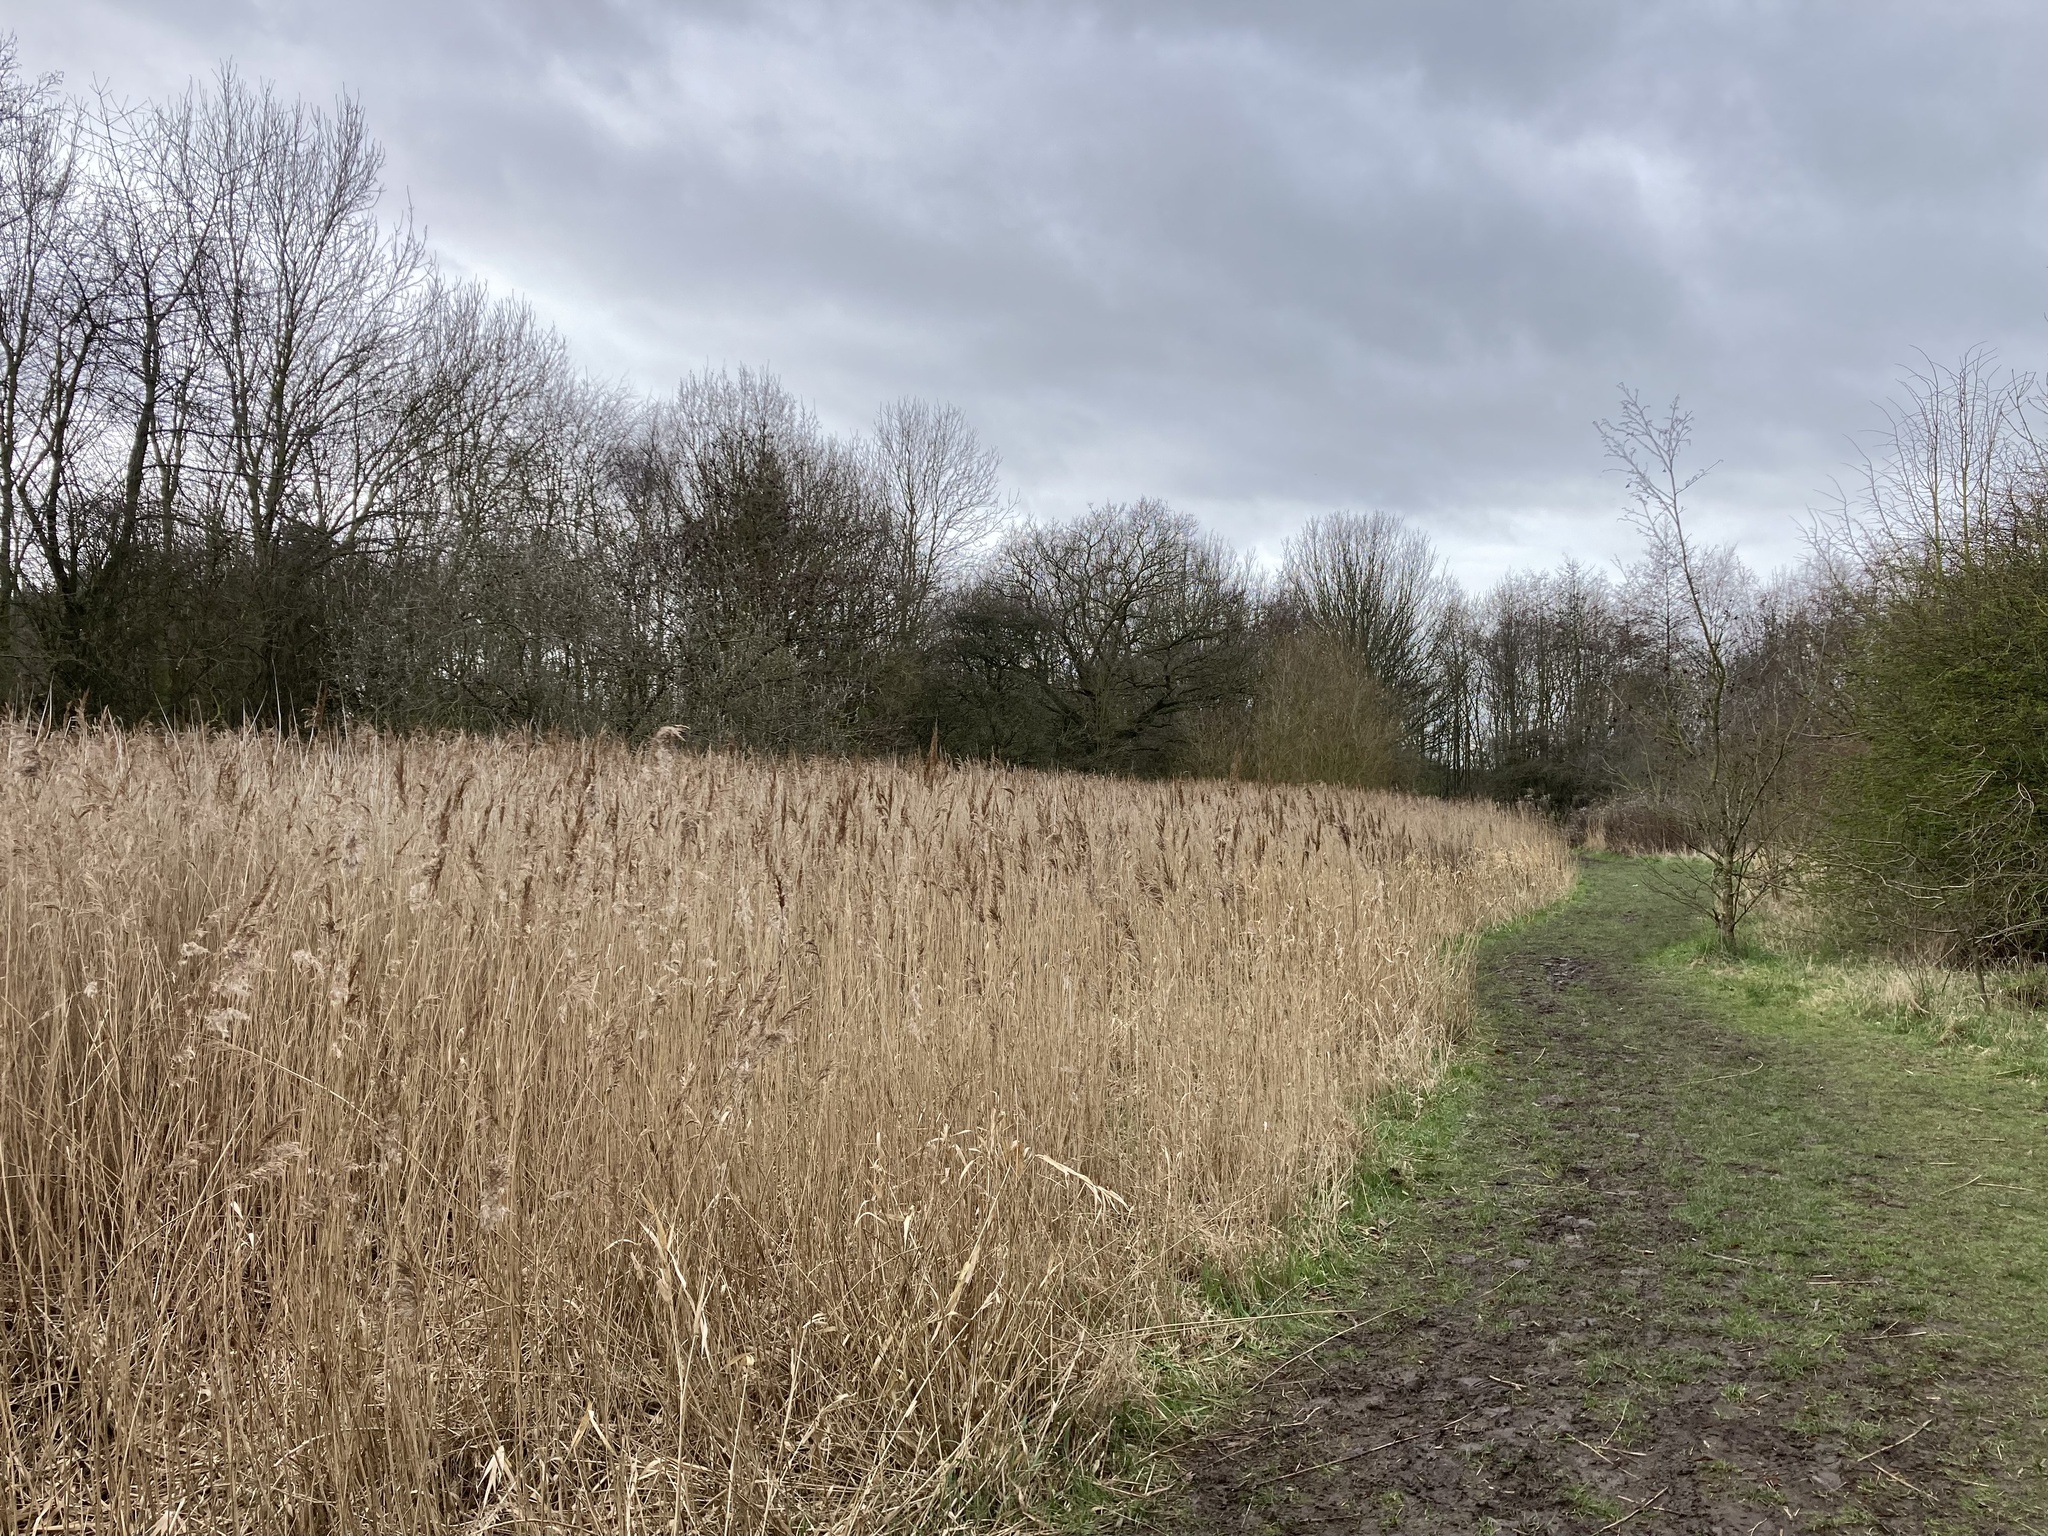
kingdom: Plantae
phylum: Tracheophyta
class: Liliopsida
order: Poales
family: Poaceae
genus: Phragmites
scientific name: Phragmites australis
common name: Common reed
